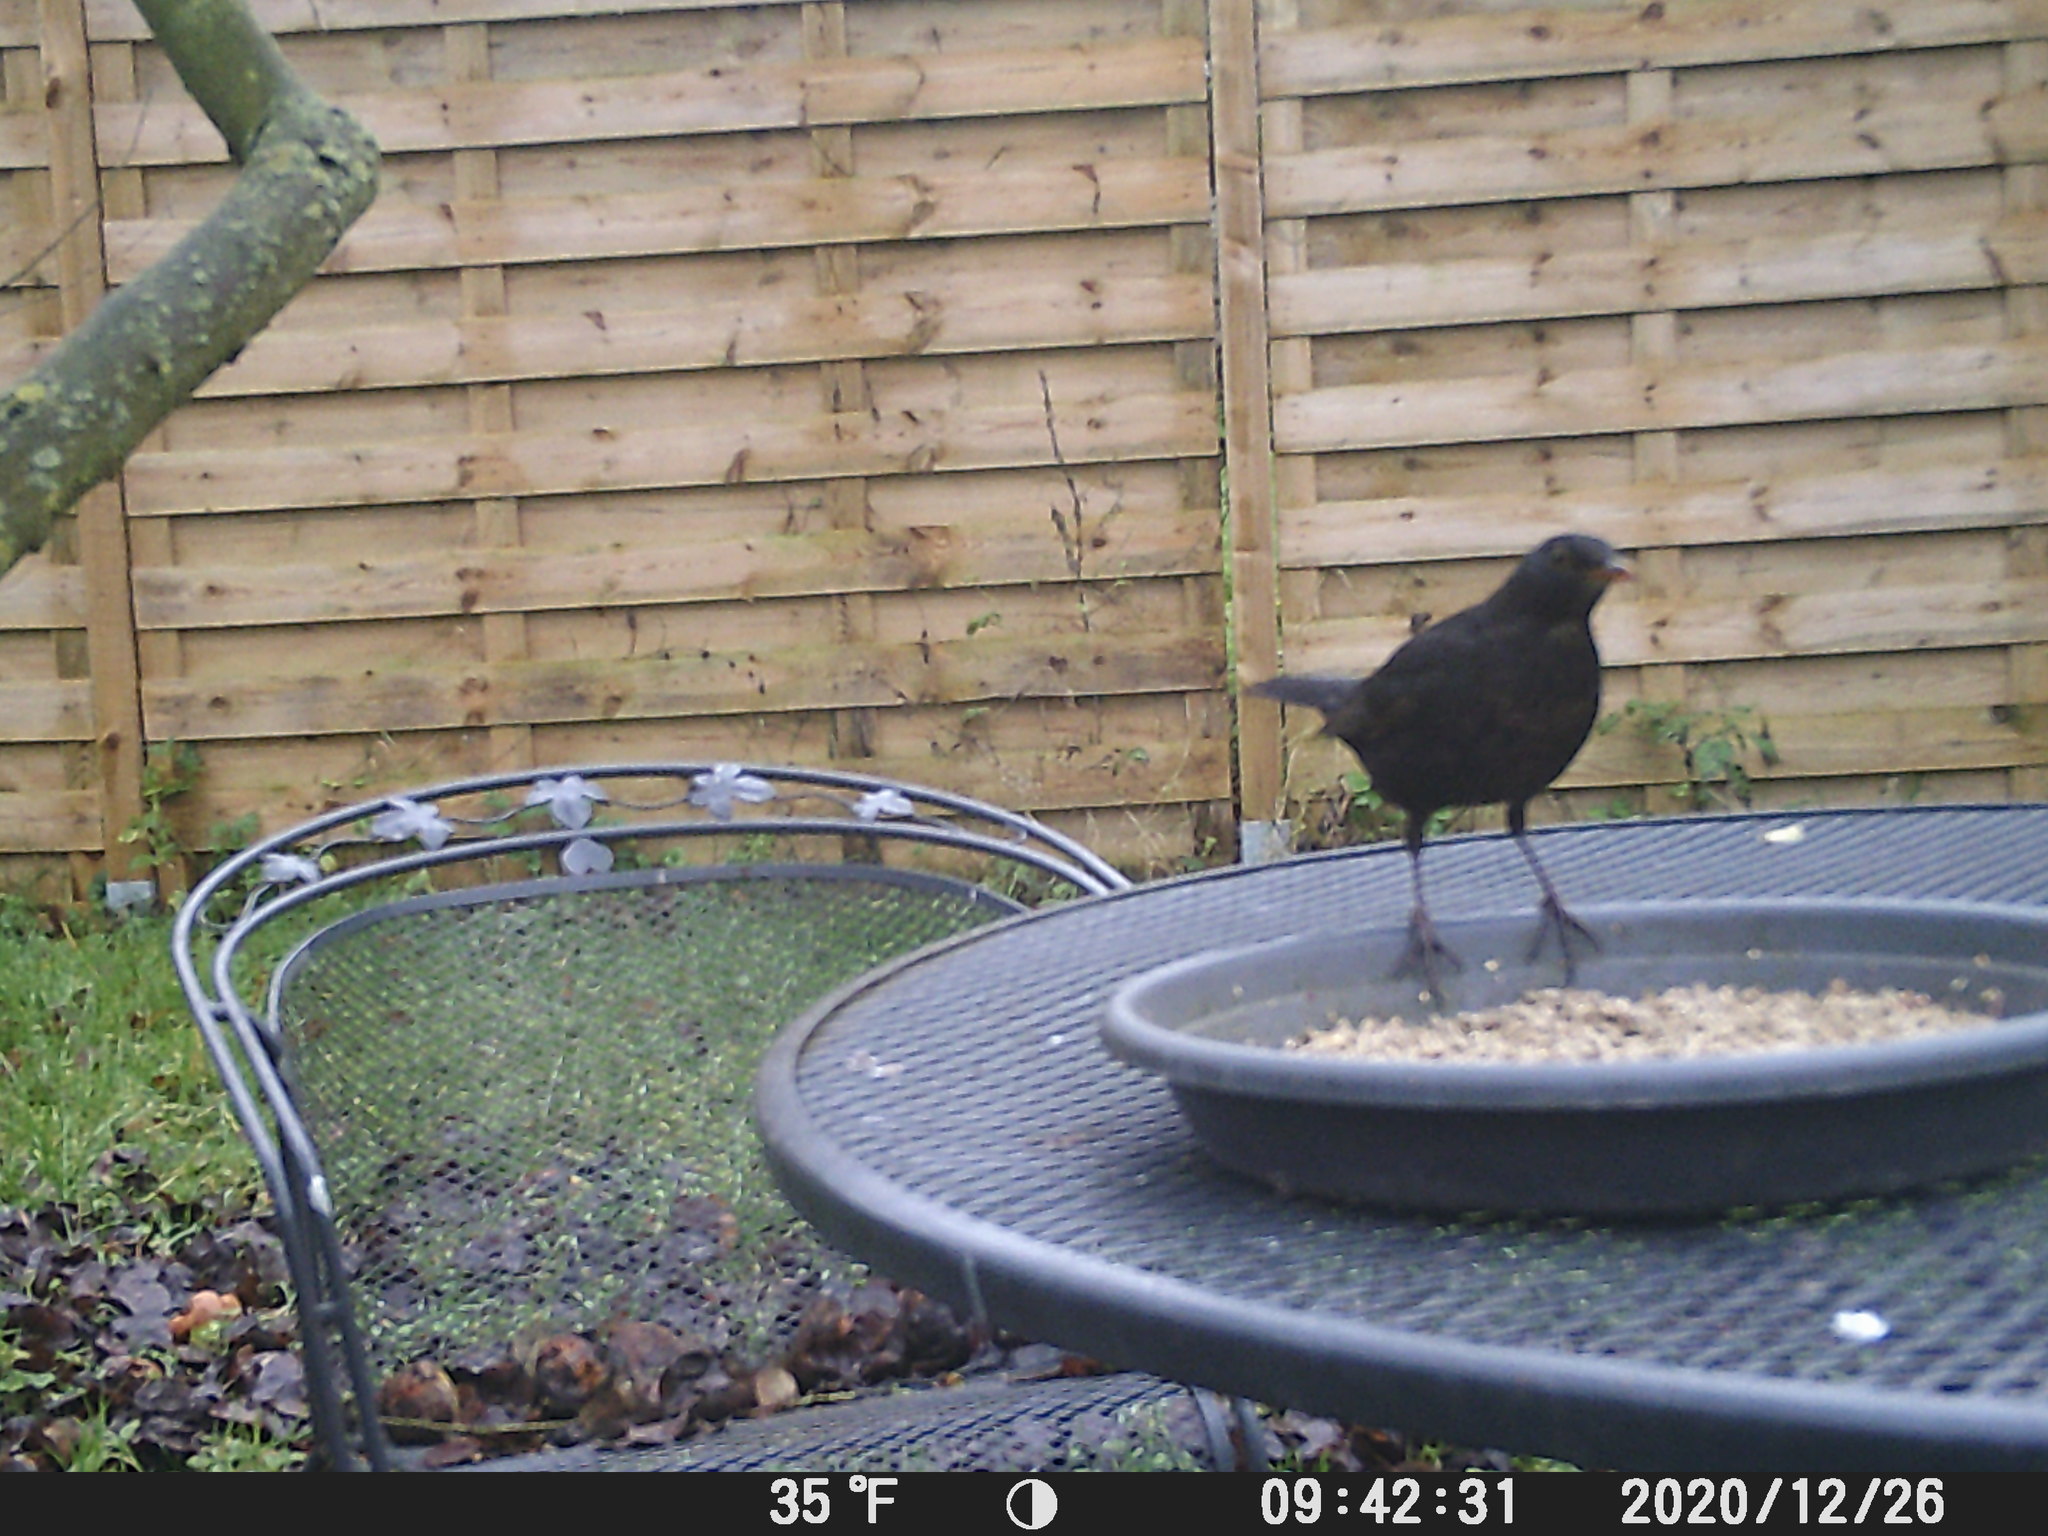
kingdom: Animalia
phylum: Chordata
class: Aves
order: Passeriformes
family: Turdidae
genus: Turdus
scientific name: Turdus merula
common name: Common blackbird
